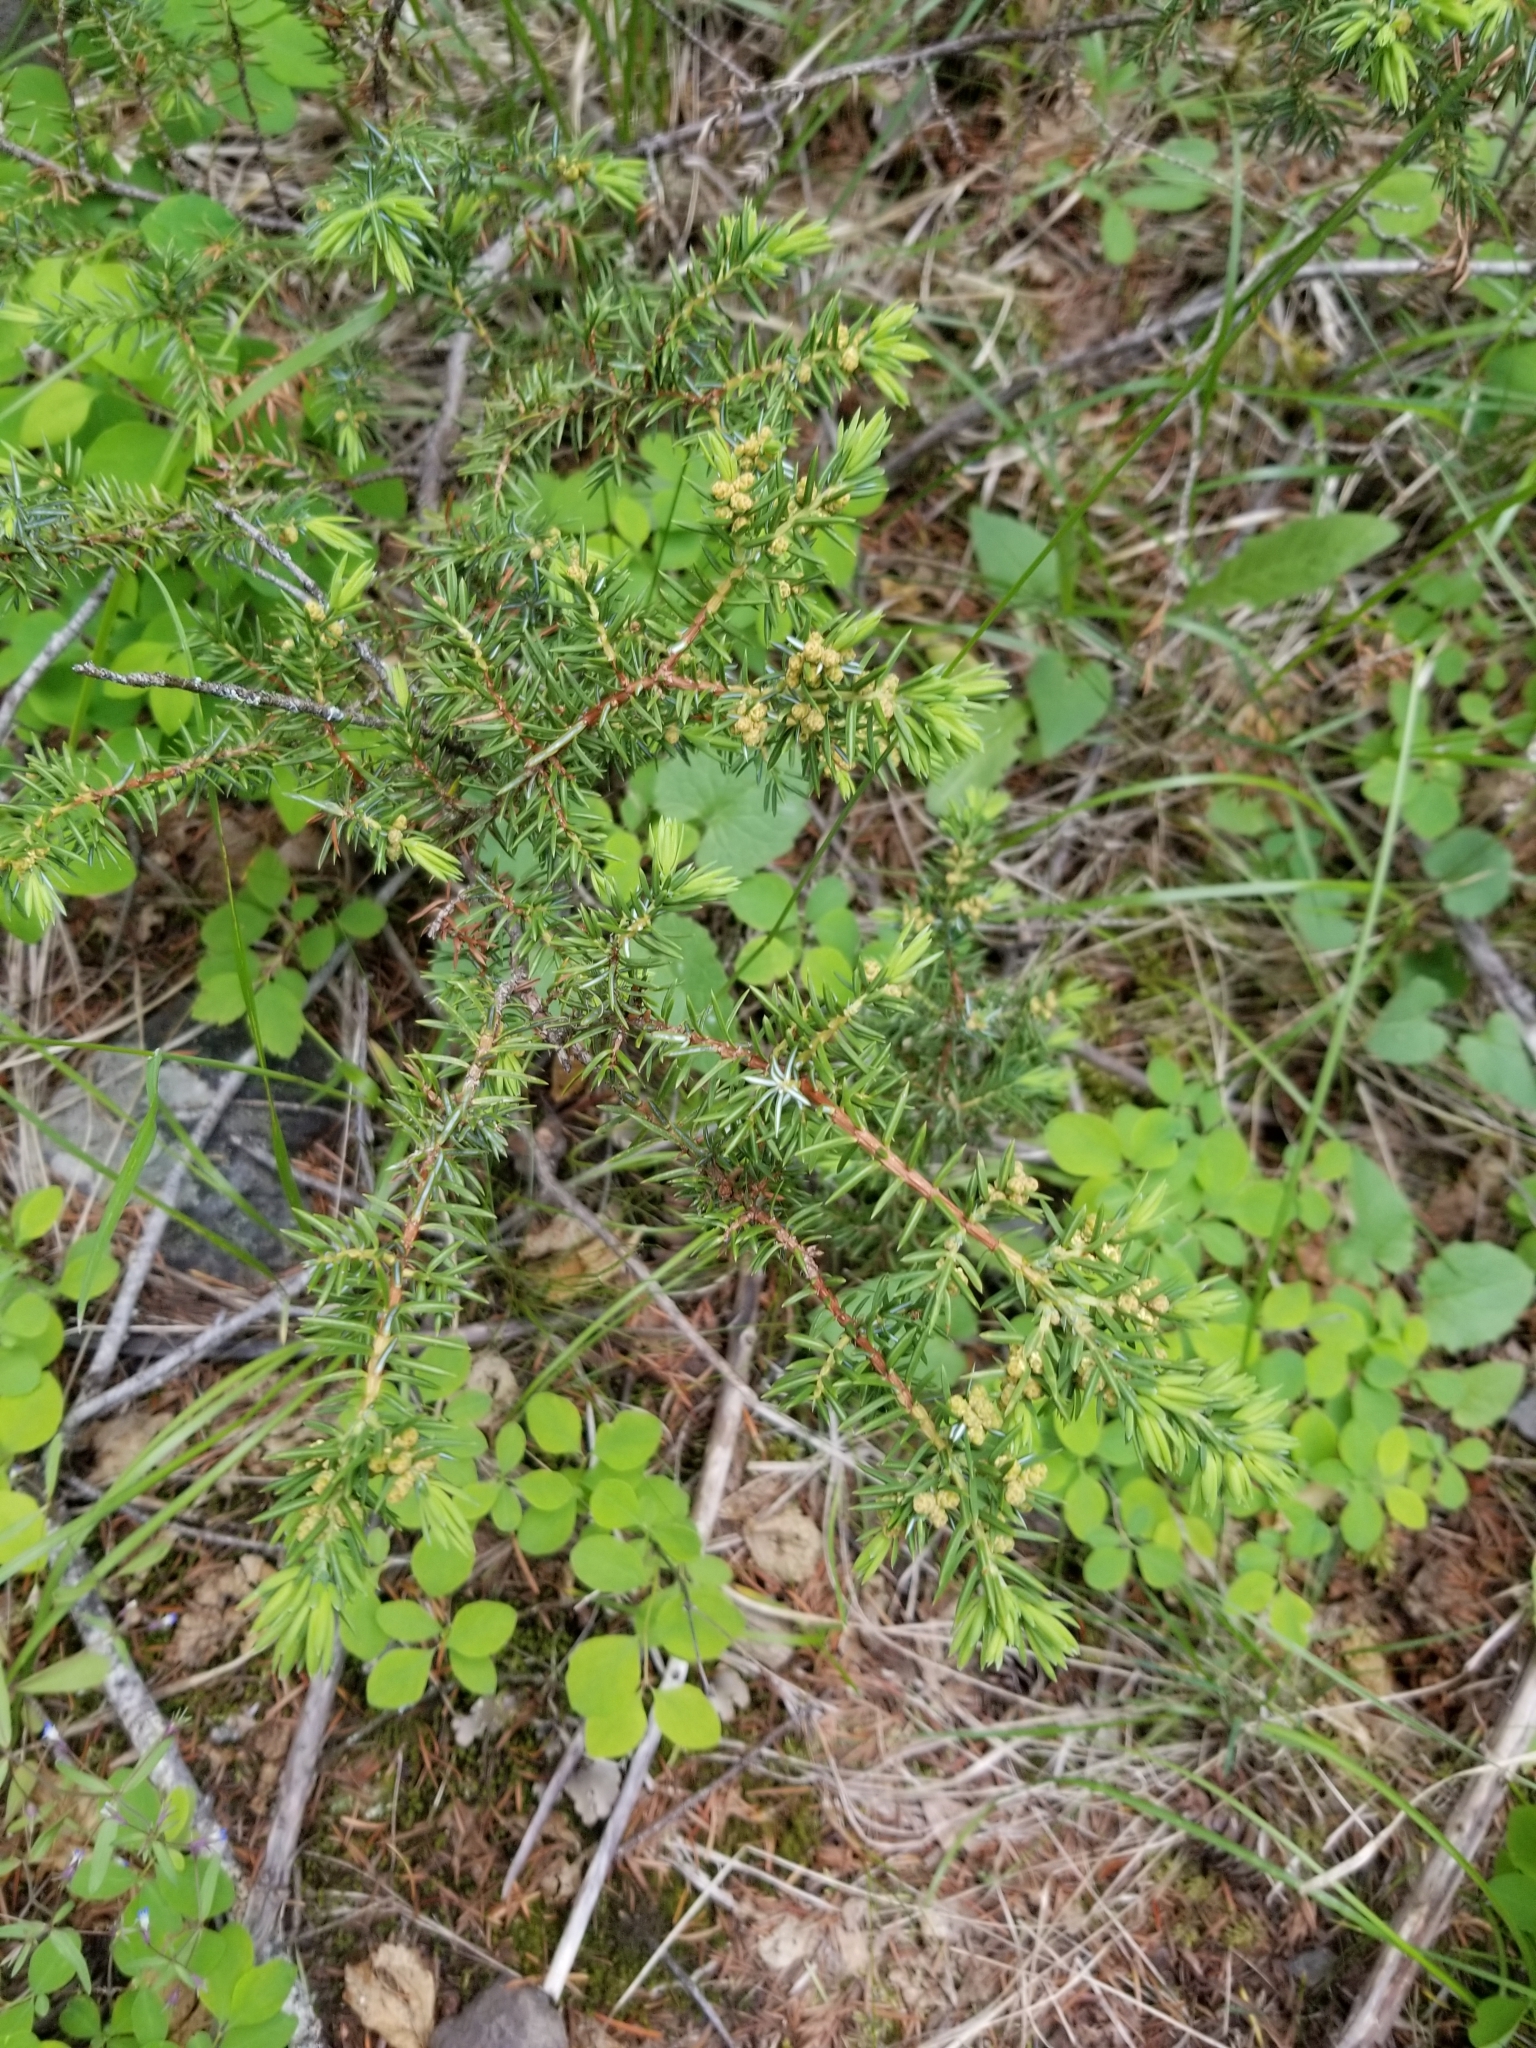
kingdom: Plantae
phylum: Tracheophyta
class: Pinopsida
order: Pinales
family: Cupressaceae
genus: Juniperus
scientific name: Juniperus communis
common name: Common juniper
